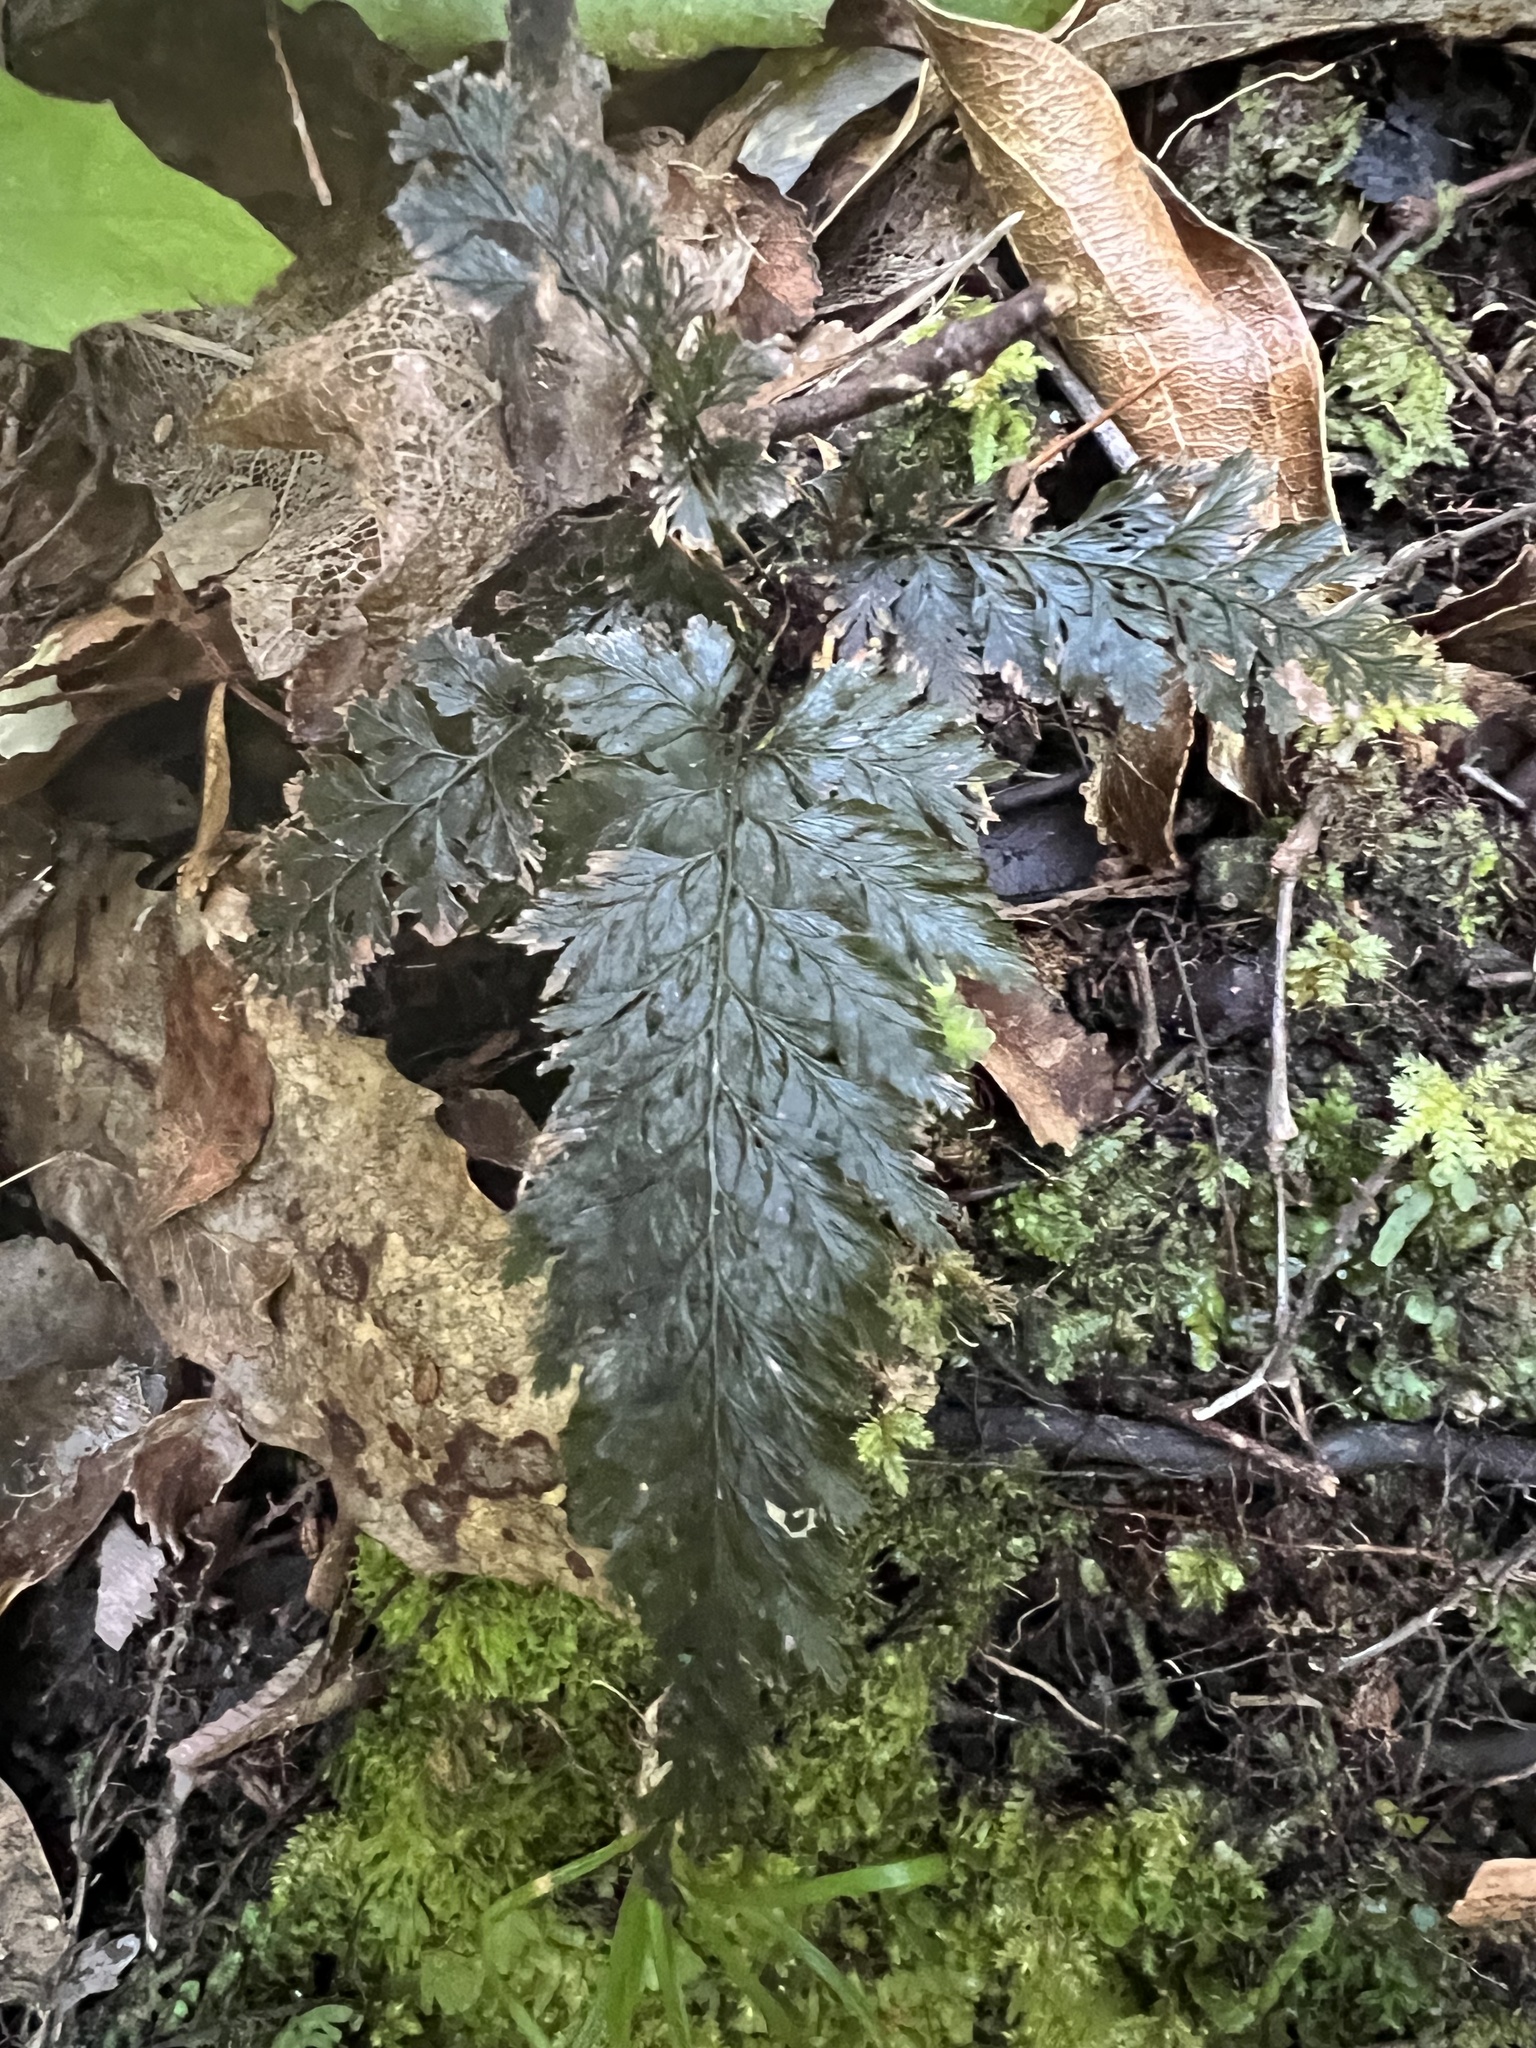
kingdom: Plantae
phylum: Tracheophyta
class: Polypodiopsida
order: Hymenophyllales
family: Hymenophyllaceae
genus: Abrodictyum
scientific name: Abrodictyum elongatum
